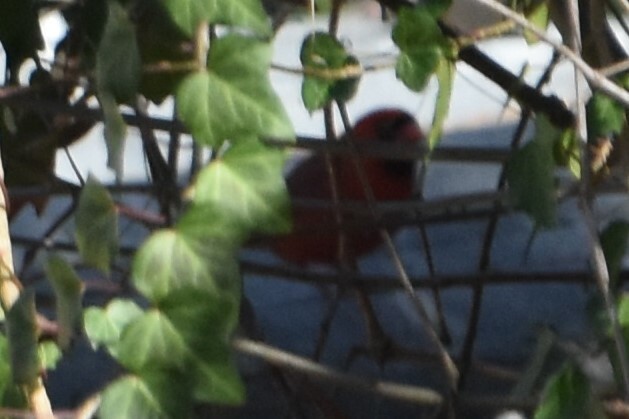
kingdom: Animalia
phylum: Chordata
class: Aves
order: Passeriformes
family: Cardinalidae
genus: Cardinalis
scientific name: Cardinalis cardinalis
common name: Northern cardinal
